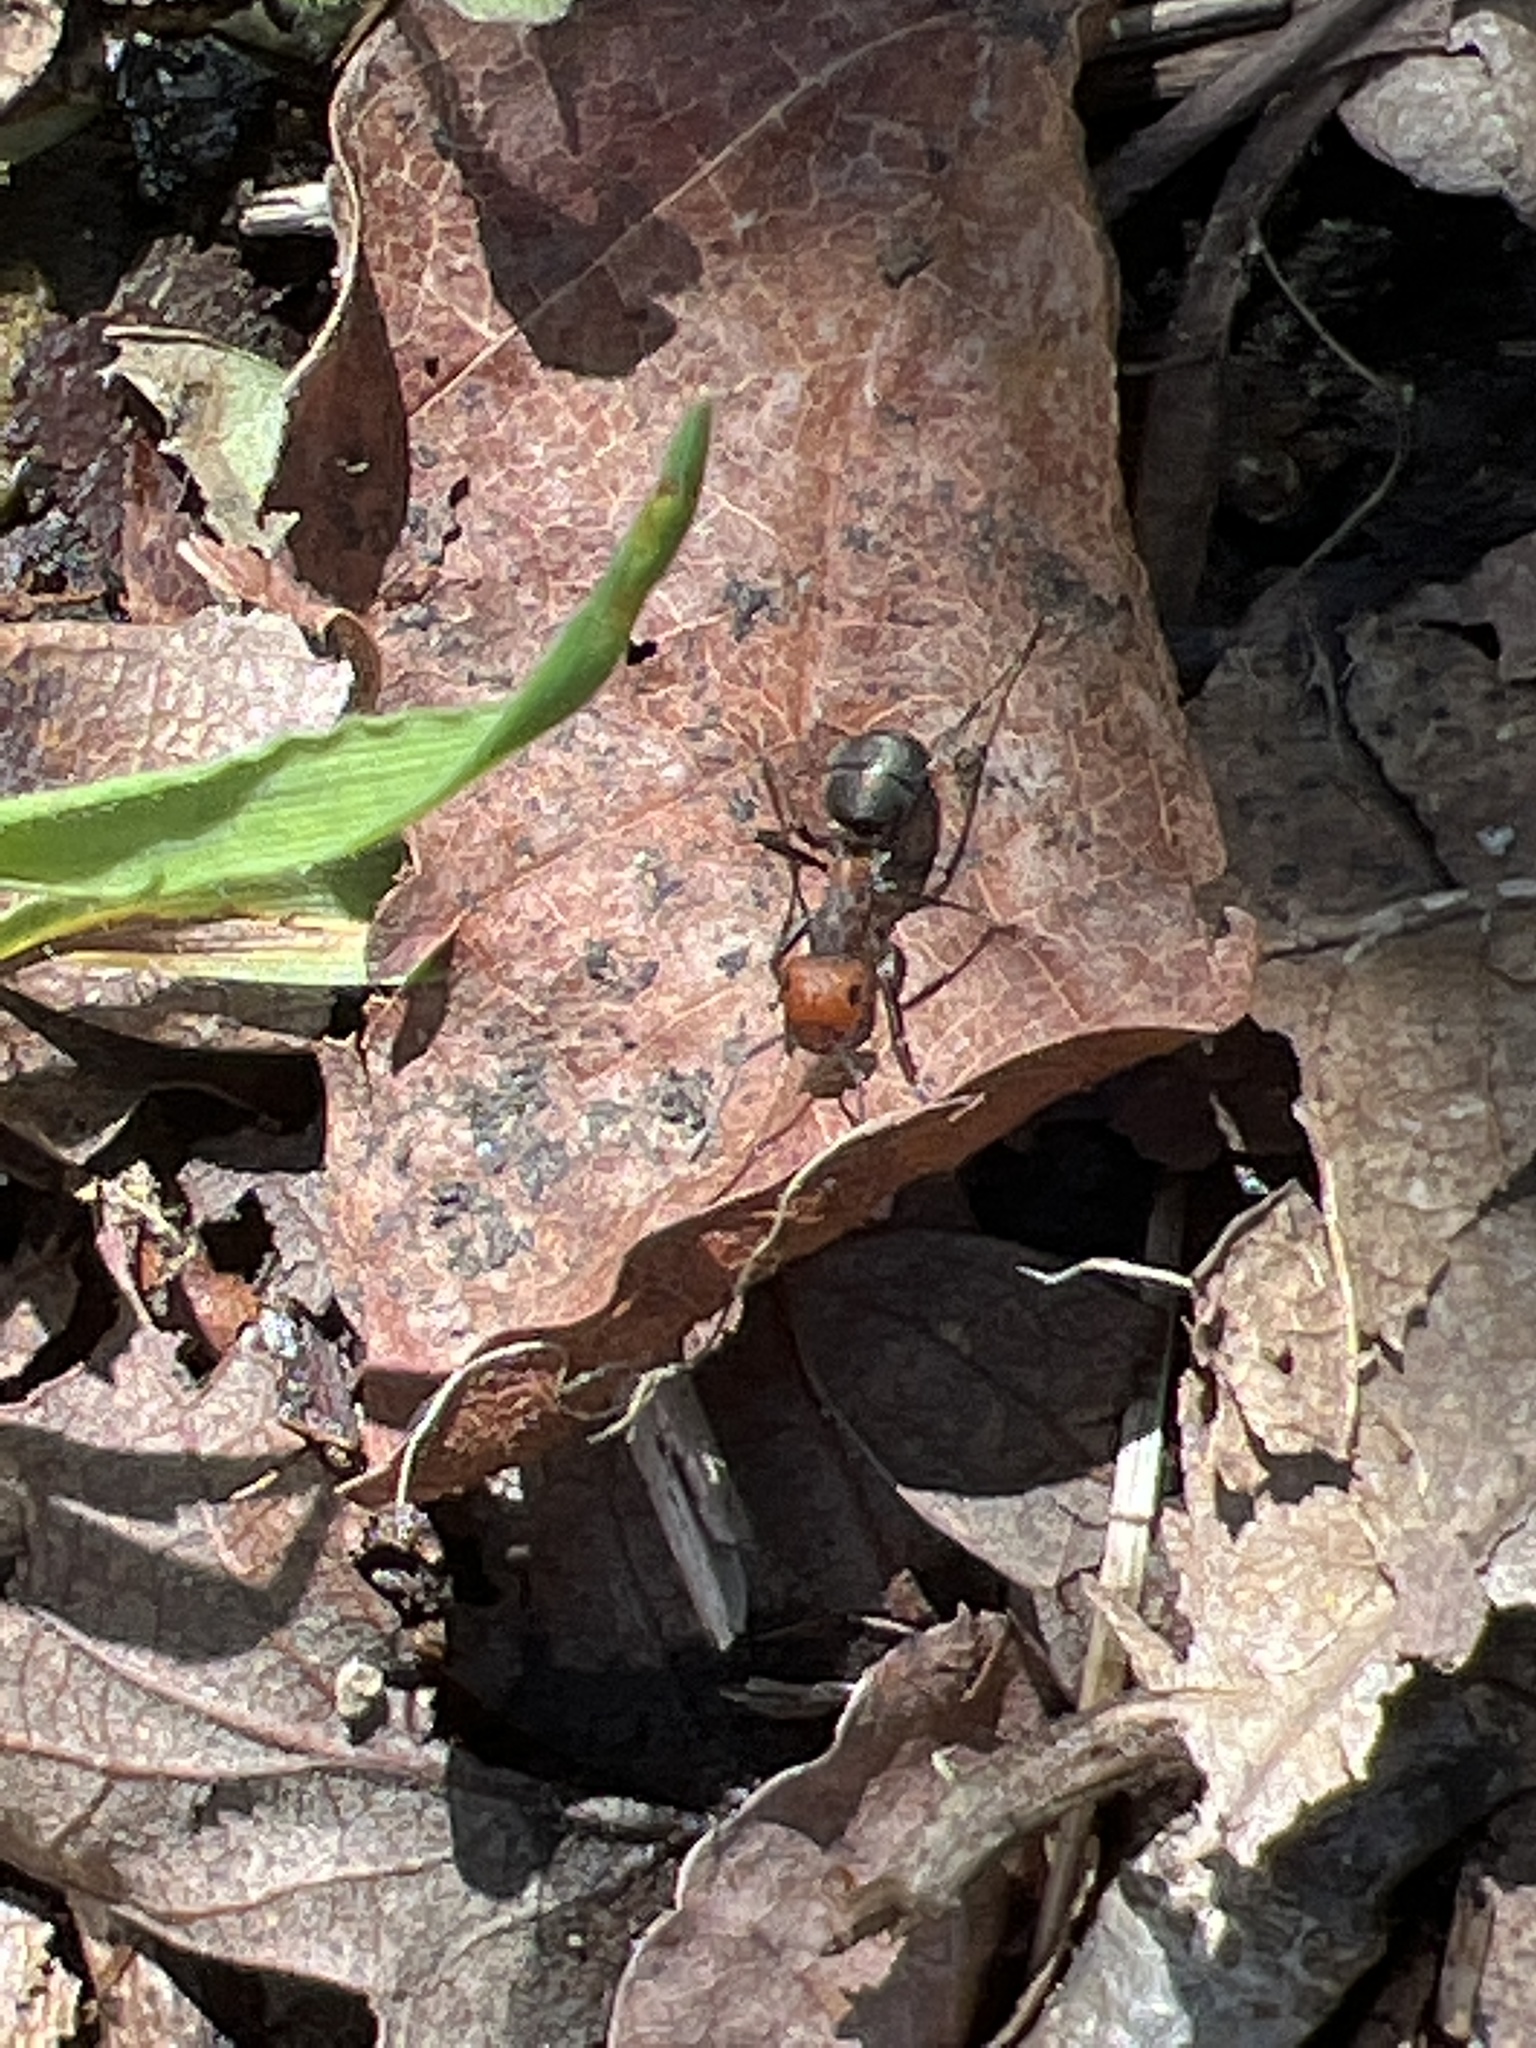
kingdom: Animalia
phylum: Arthropoda
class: Insecta
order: Hymenoptera
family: Formicidae
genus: Formica
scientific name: Formica obscuripes
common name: Western thatching ant
